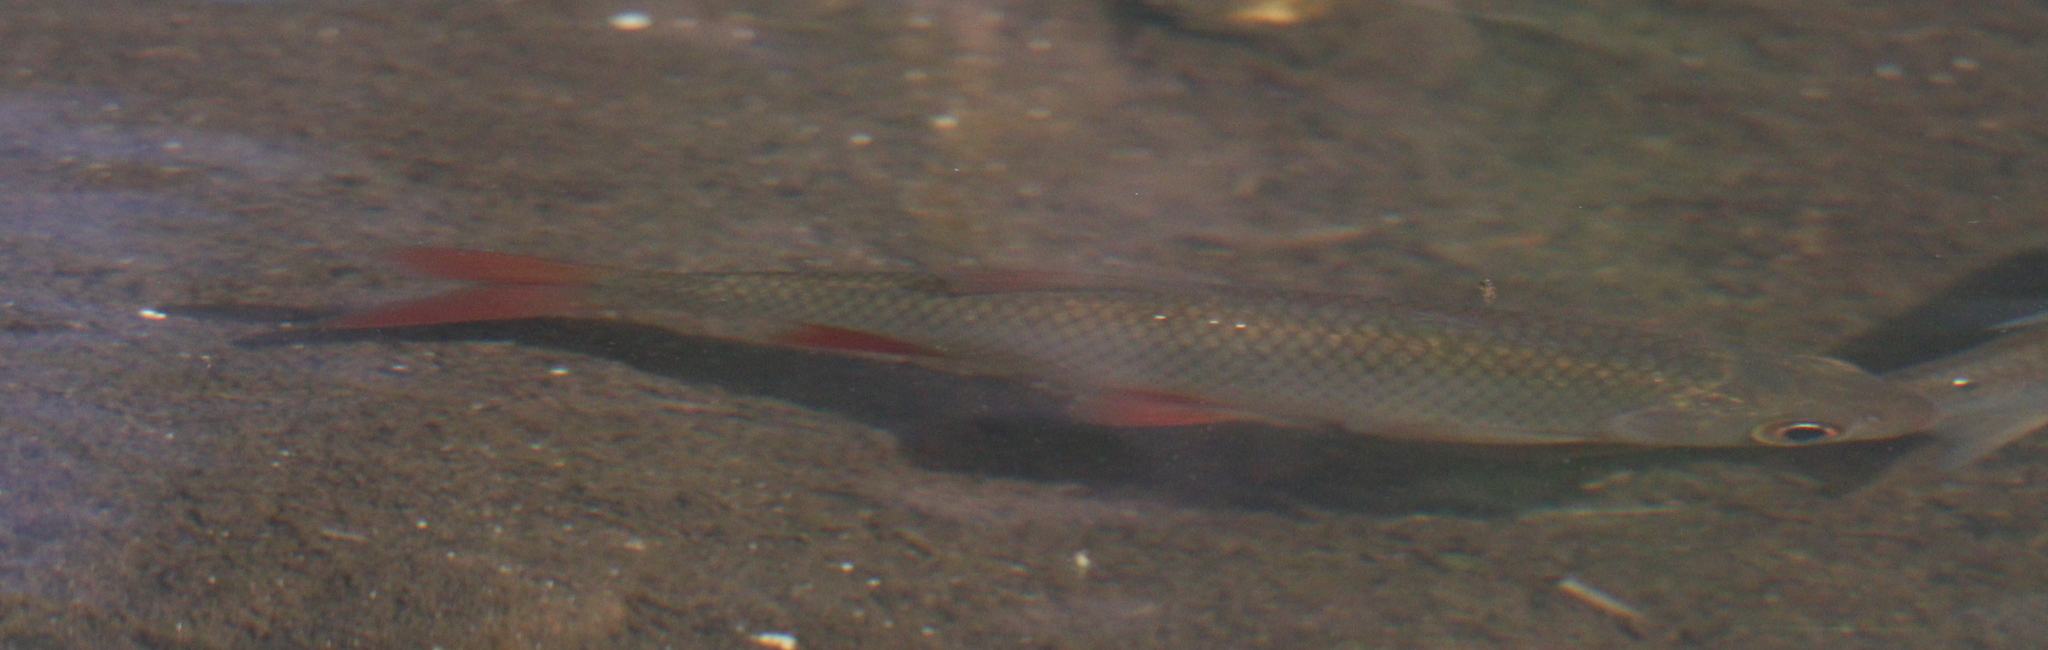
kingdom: Animalia
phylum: Chordata
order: Cypriniformes
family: Cyprinidae
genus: Scardinius
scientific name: Scardinius erythrophthalmus
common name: Rudd
